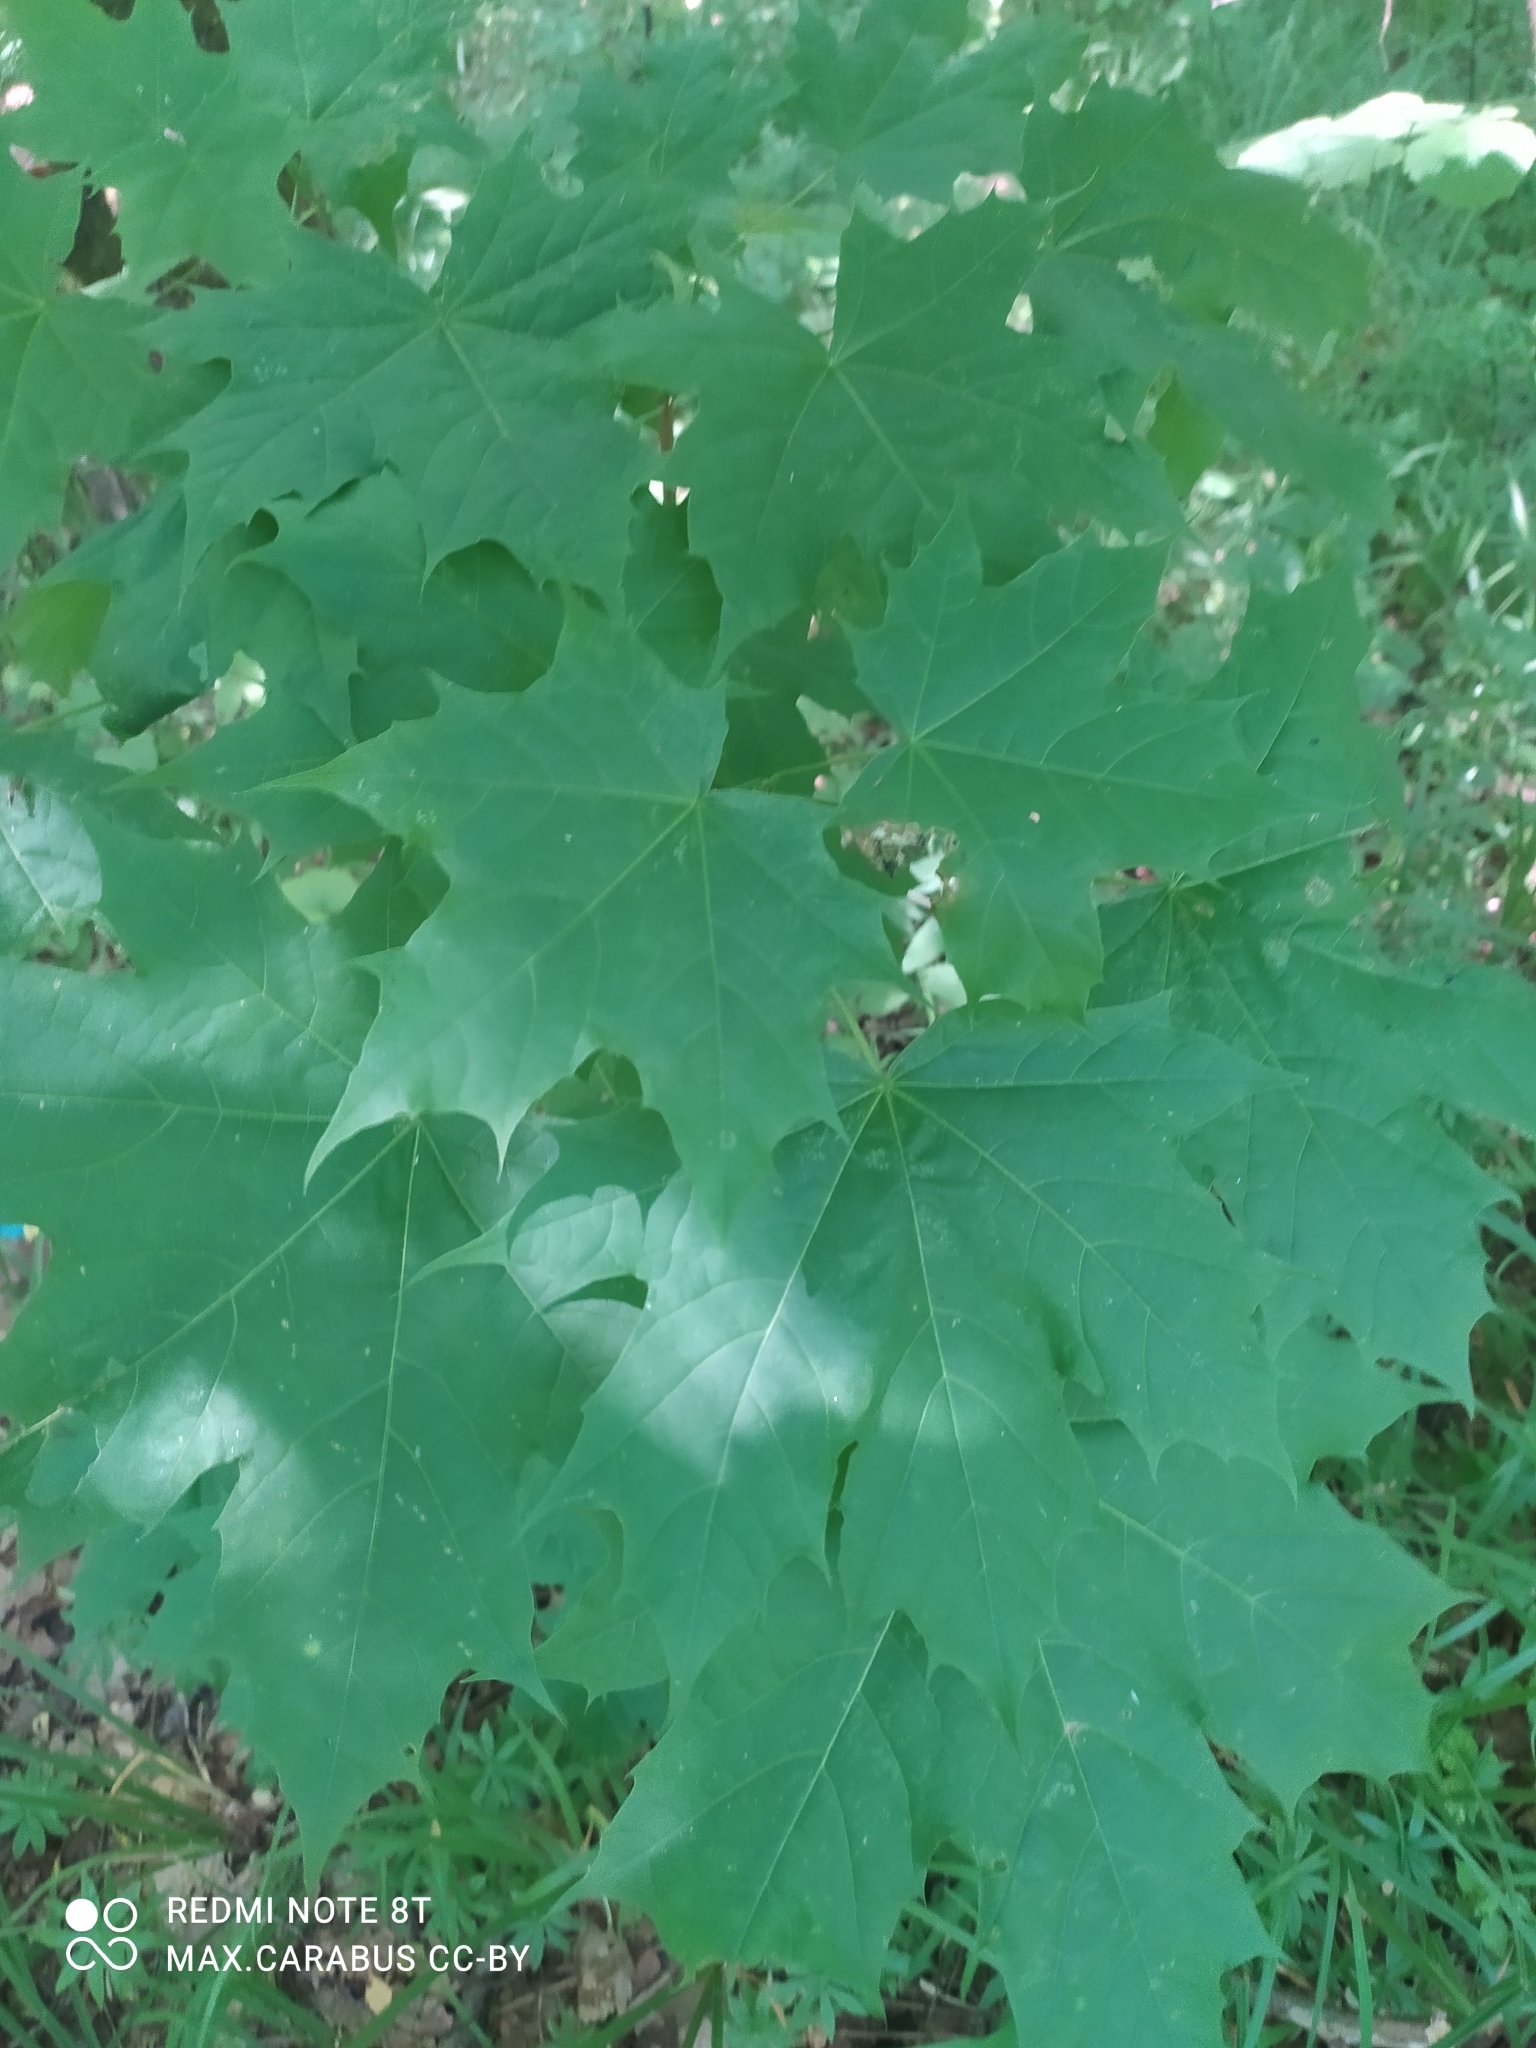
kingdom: Plantae
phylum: Tracheophyta
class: Magnoliopsida
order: Sapindales
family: Sapindaceae
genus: Acer
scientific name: Acer platanoides
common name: Norway maple
